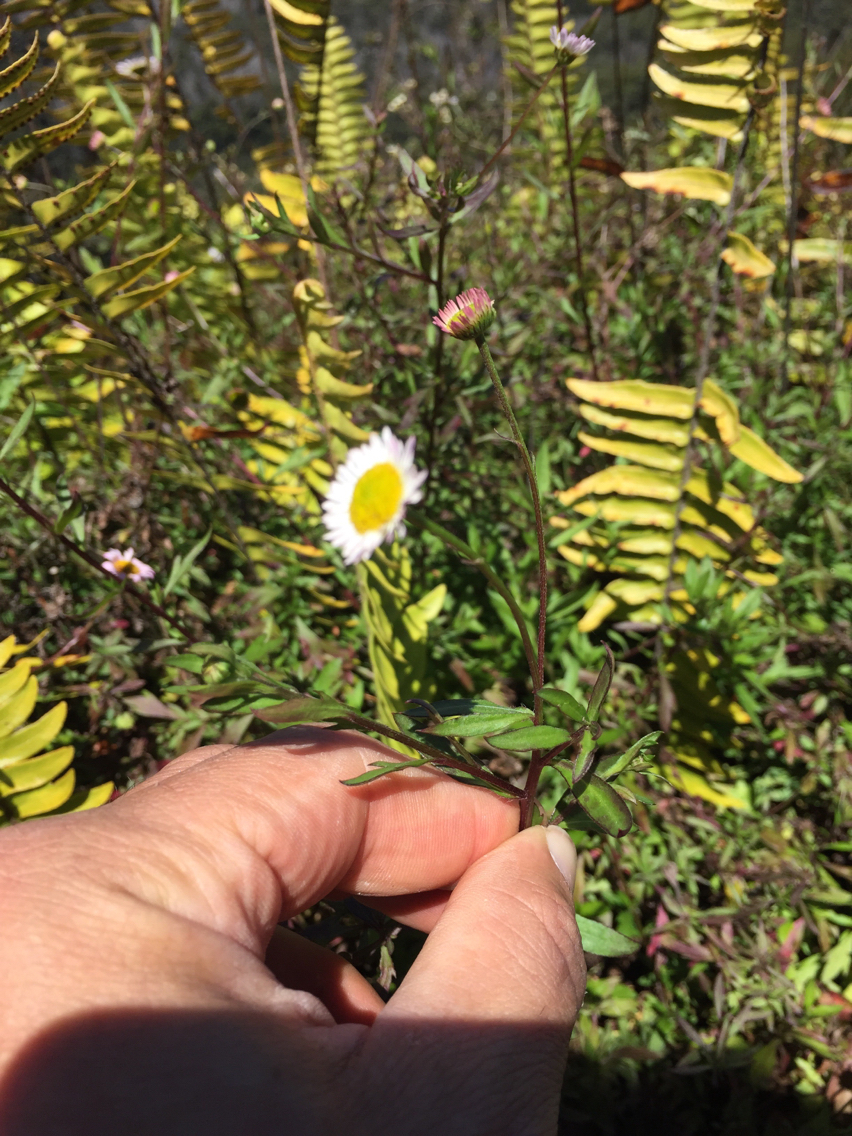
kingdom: Plantae
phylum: Tracheophyta
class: Magnoliopsida
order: Asterales
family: Asteraceae
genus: Erigeron
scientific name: Erigeron karvinskianus
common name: Mexican fleabane
